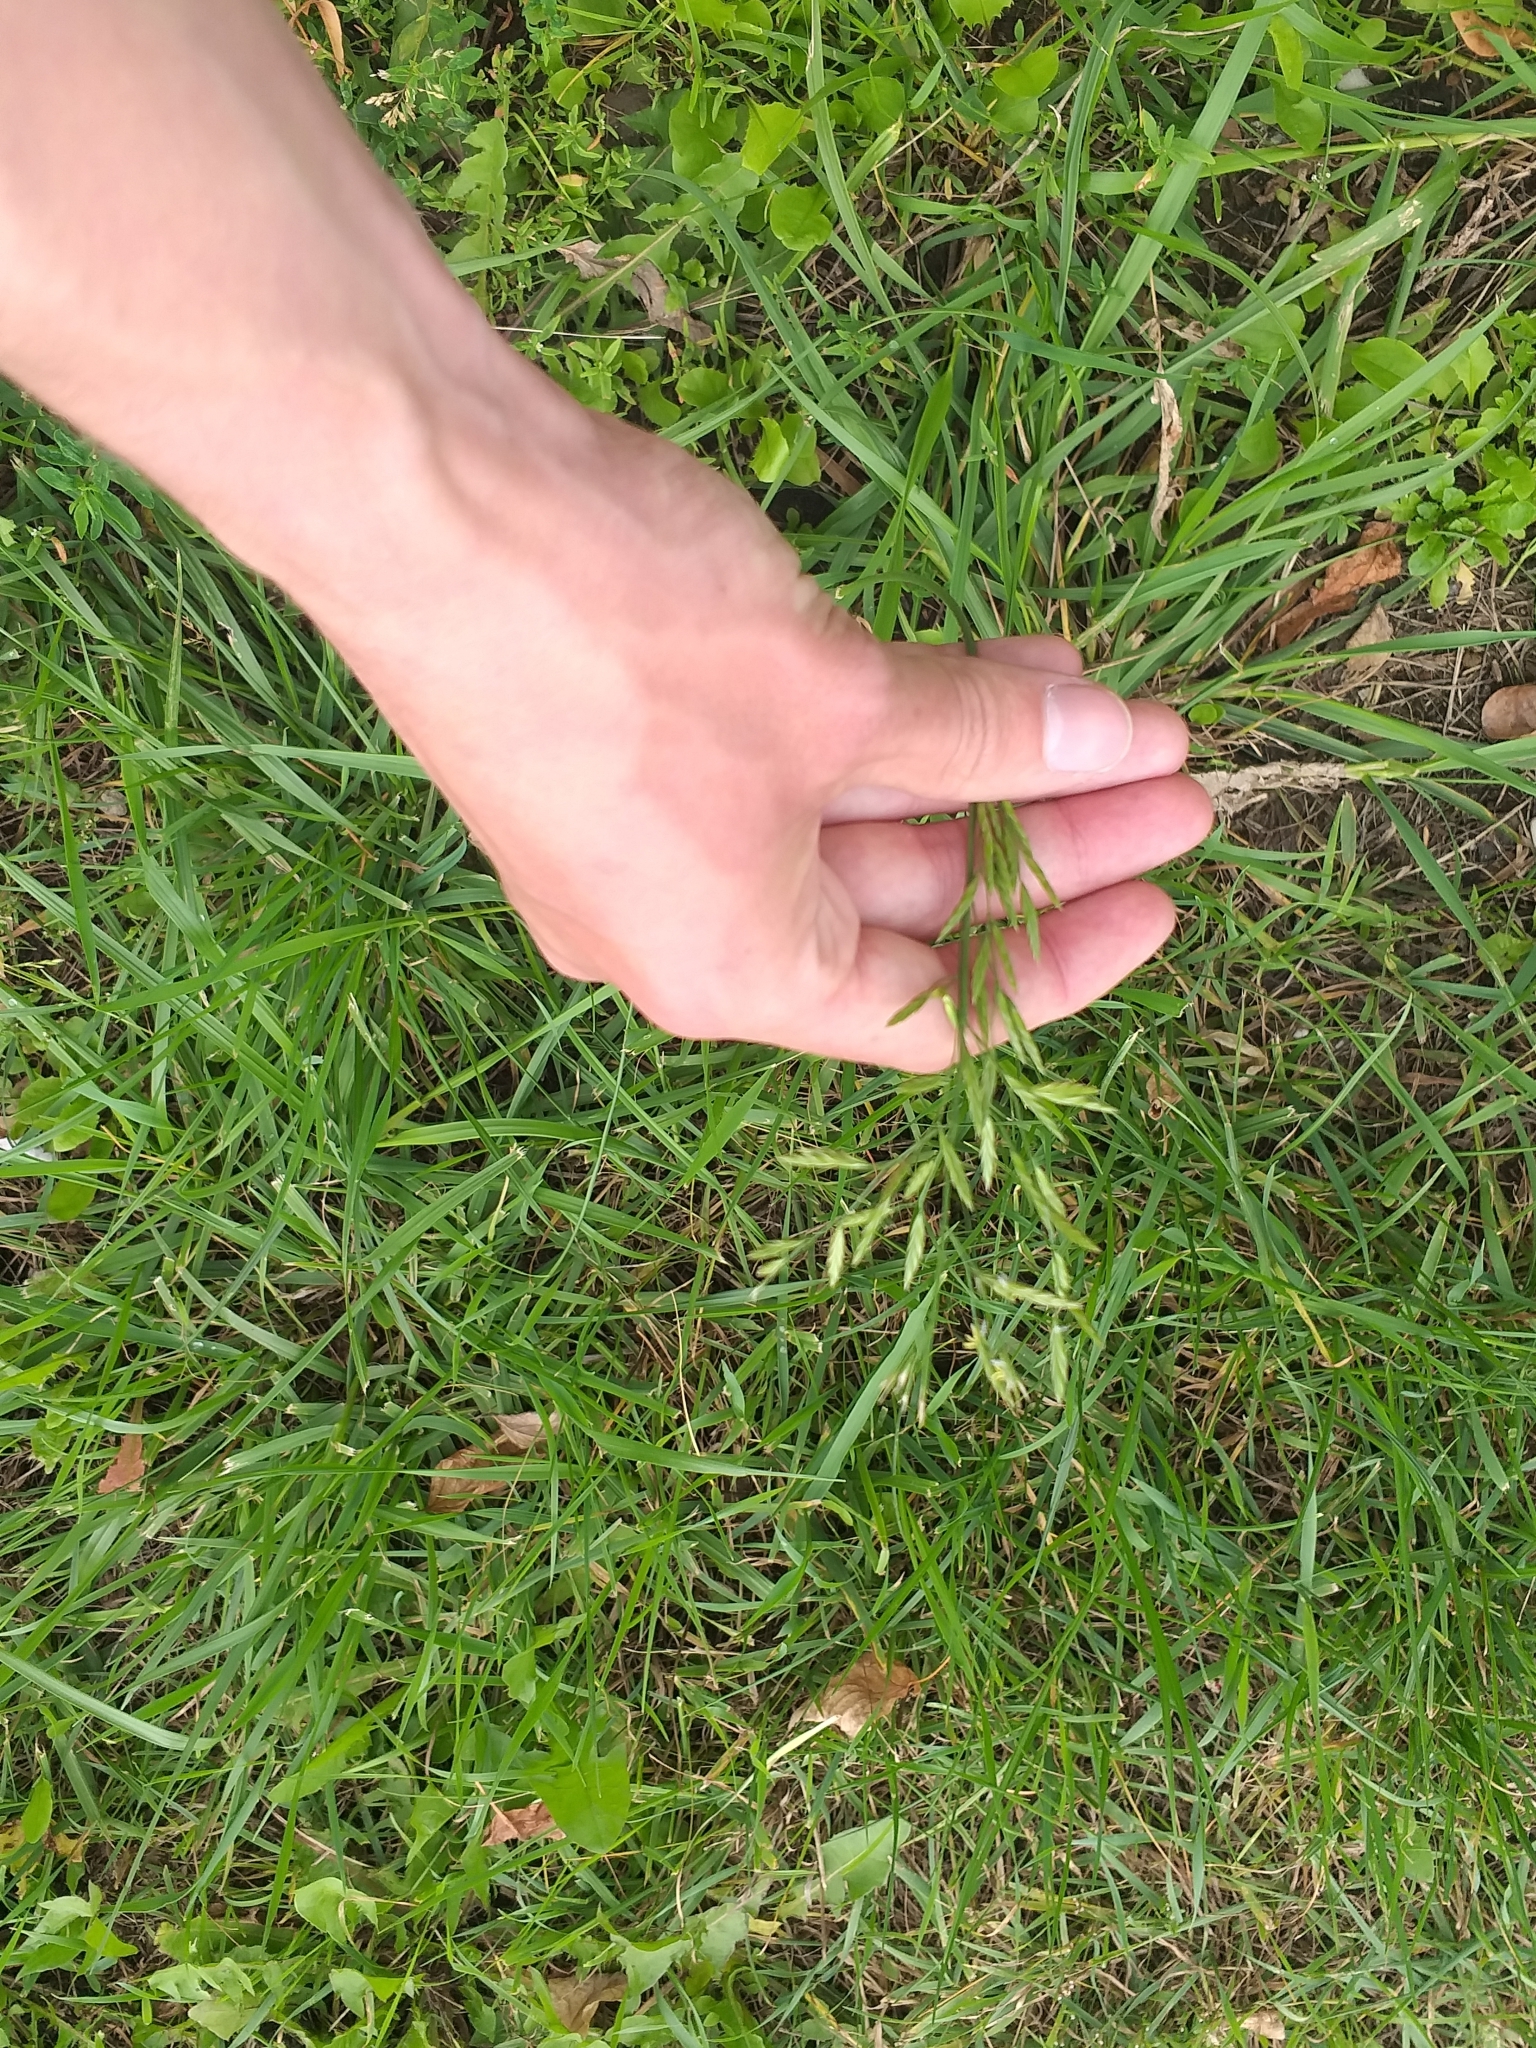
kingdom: Plantae
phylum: Tracheophyta
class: Liliopsida
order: Poales
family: Poaceae
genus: Lolium
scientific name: Lolium pratense
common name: Dover grass
